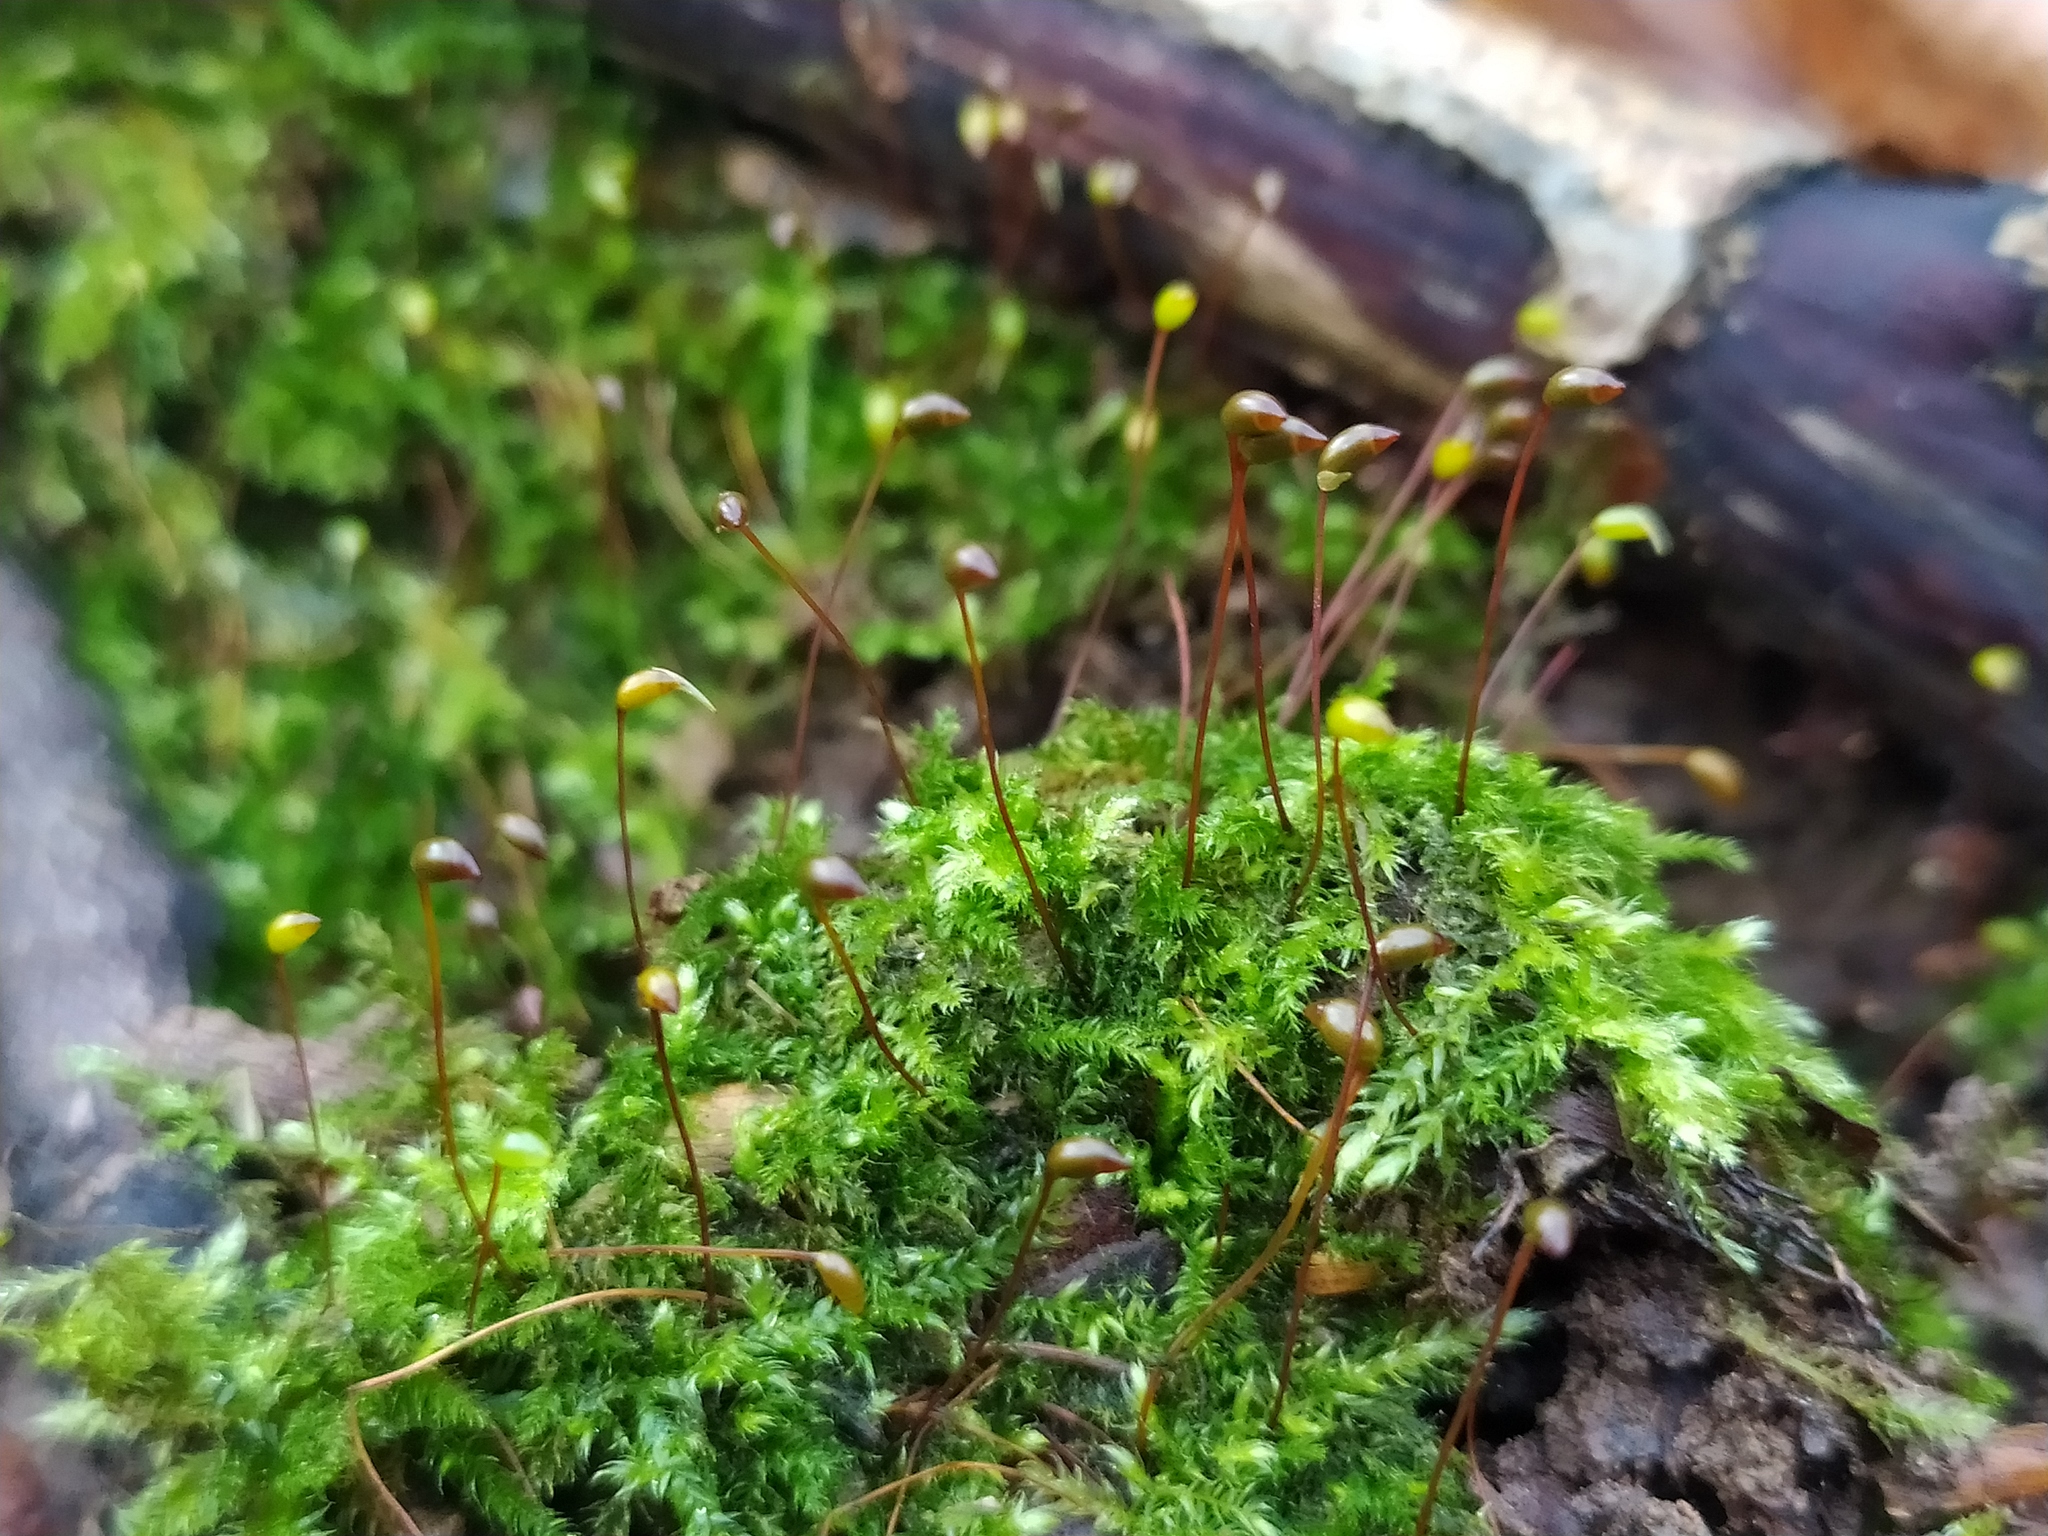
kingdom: Plantae
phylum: Bryophyta
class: Bryopsida
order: Hypnales
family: Brachytheciaceae
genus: Brachytheciastrum
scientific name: Brachytheciastrum velutinum
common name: Velvet feather-moss
